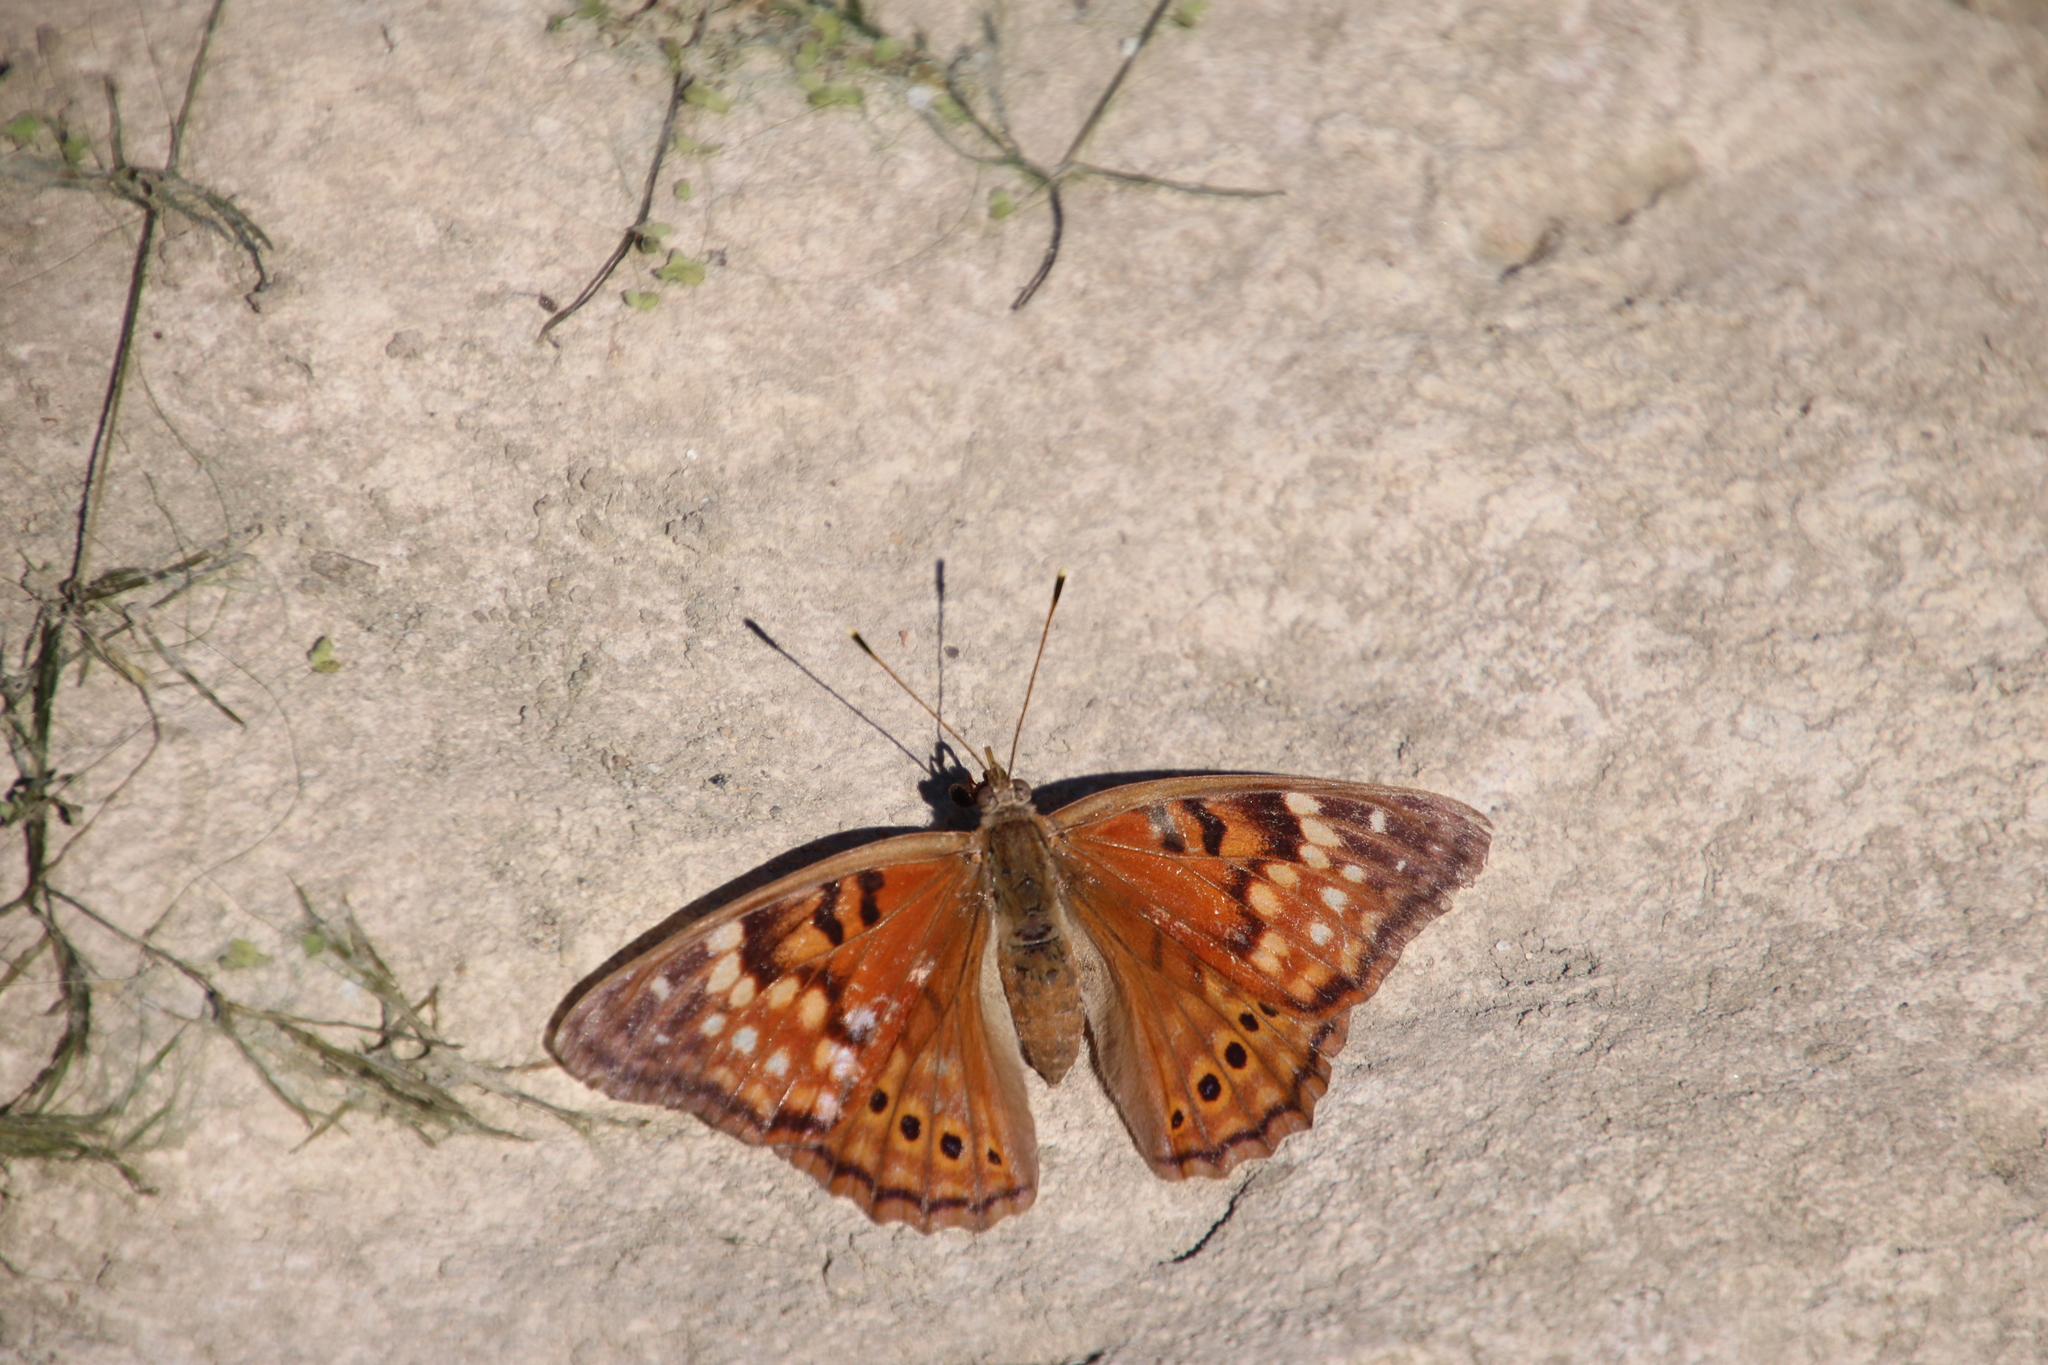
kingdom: Animalia
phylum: Arthropoda
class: Insecta
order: Lepidoptera
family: Nymphalidae
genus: Asterocampa
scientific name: Asterocampa clyton
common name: Tawny emperor
